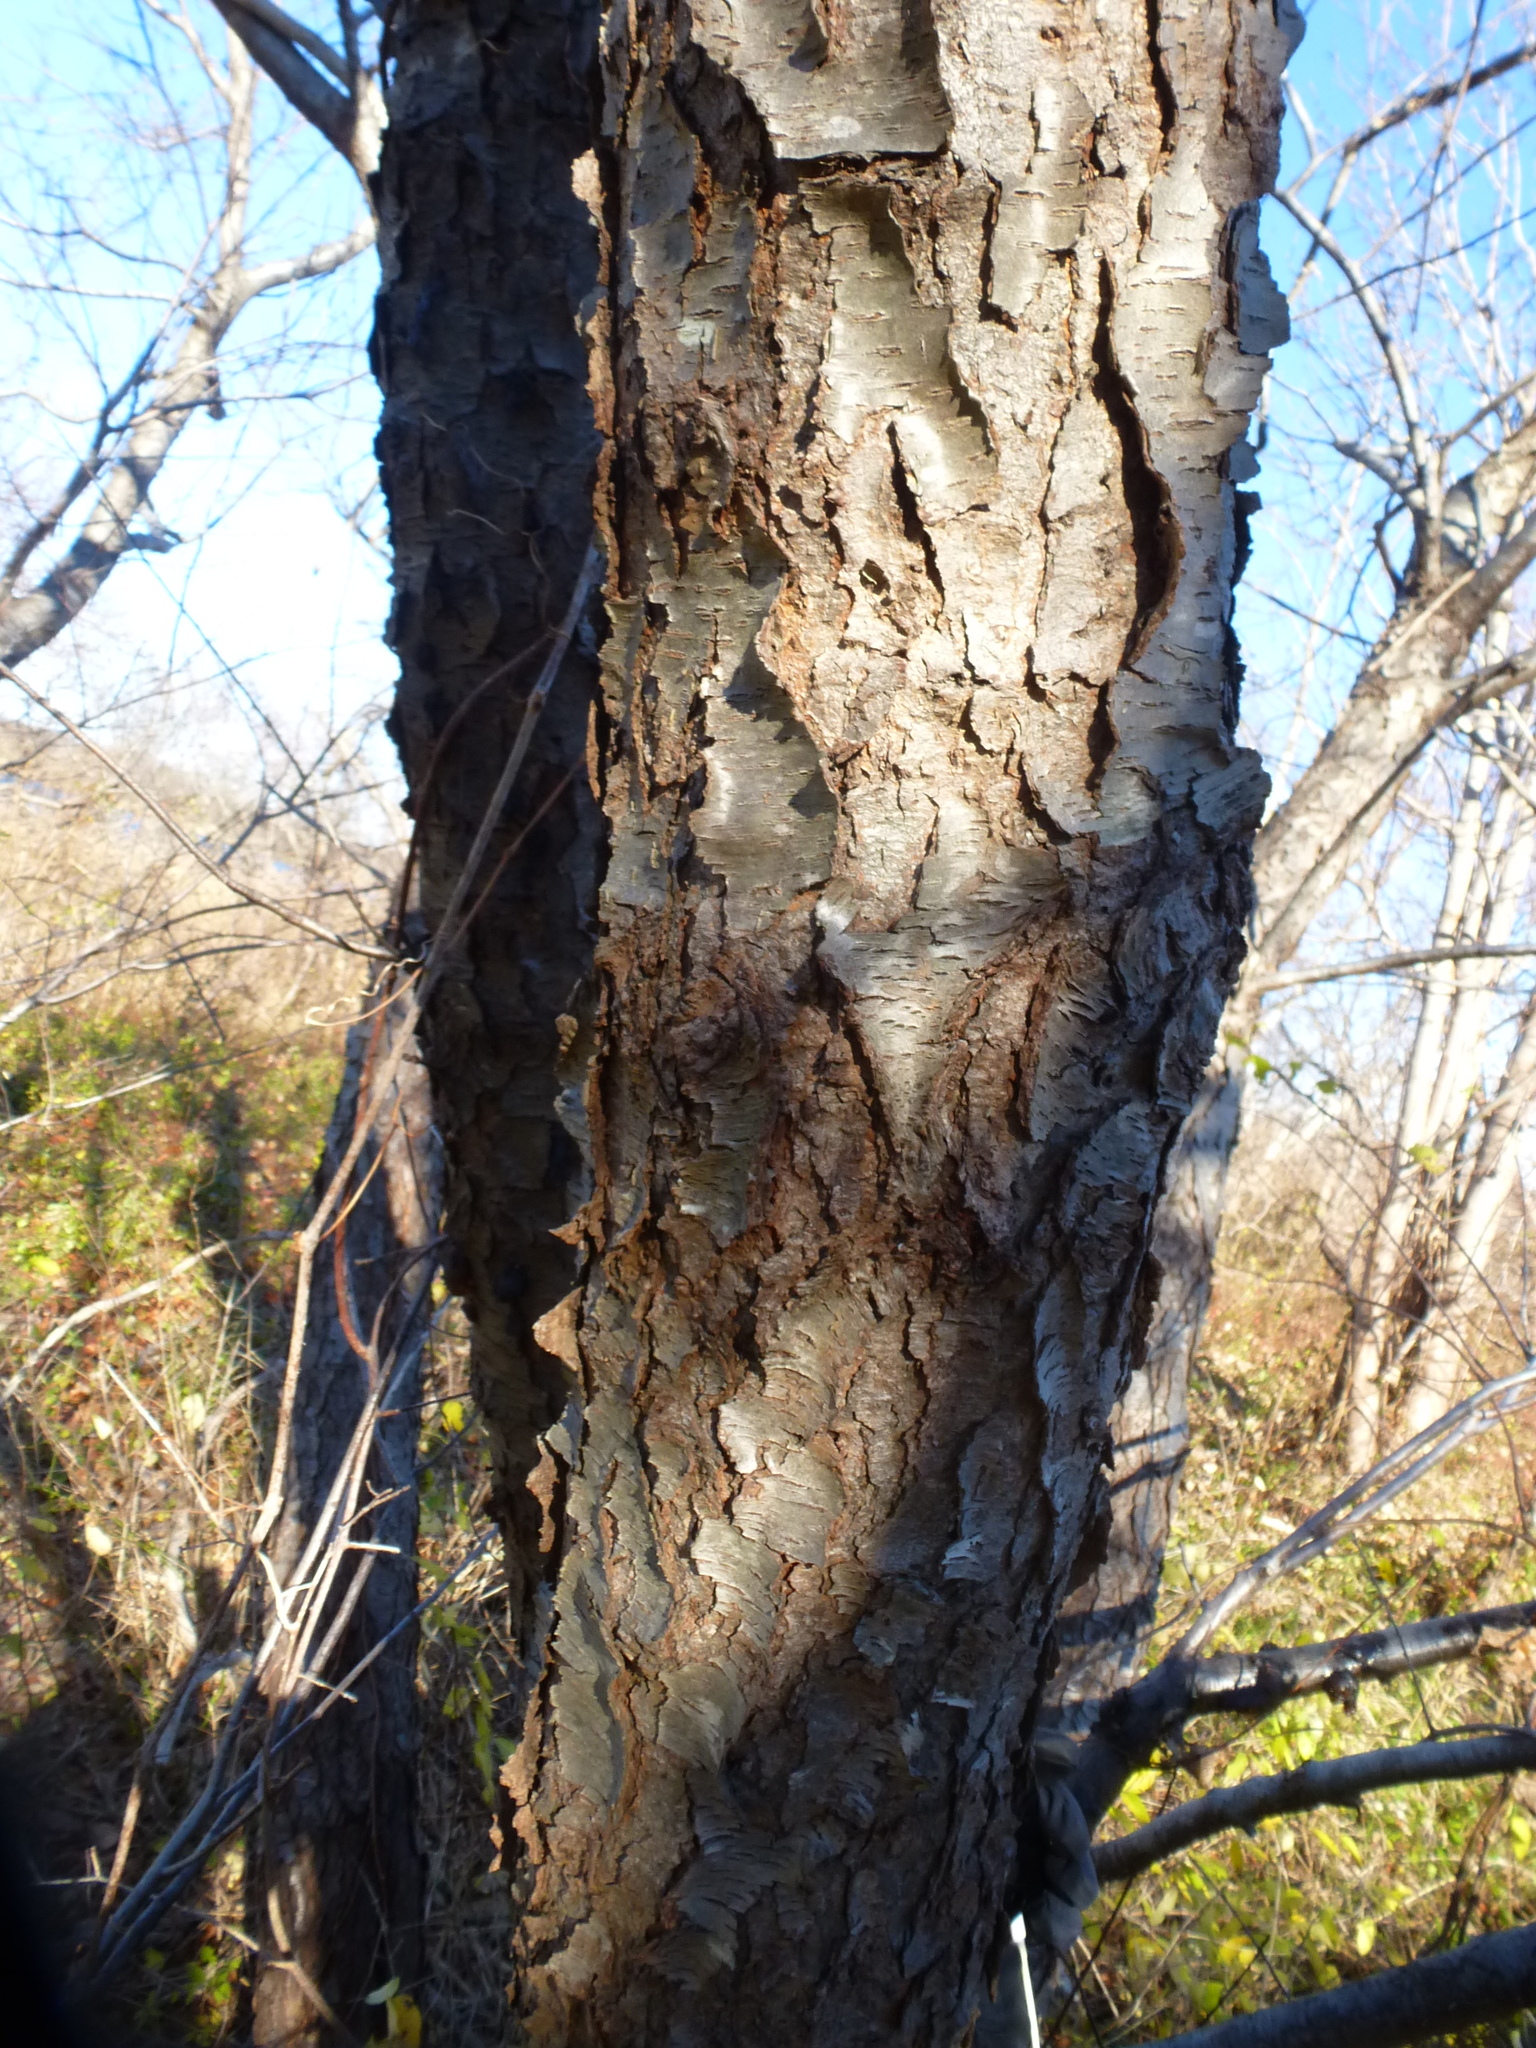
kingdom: Plantae
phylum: Tracheophyta
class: Magnoliopsida
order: Rosales
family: Rosaceae
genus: Prunus
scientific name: Prunus serotina
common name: Black cherry
